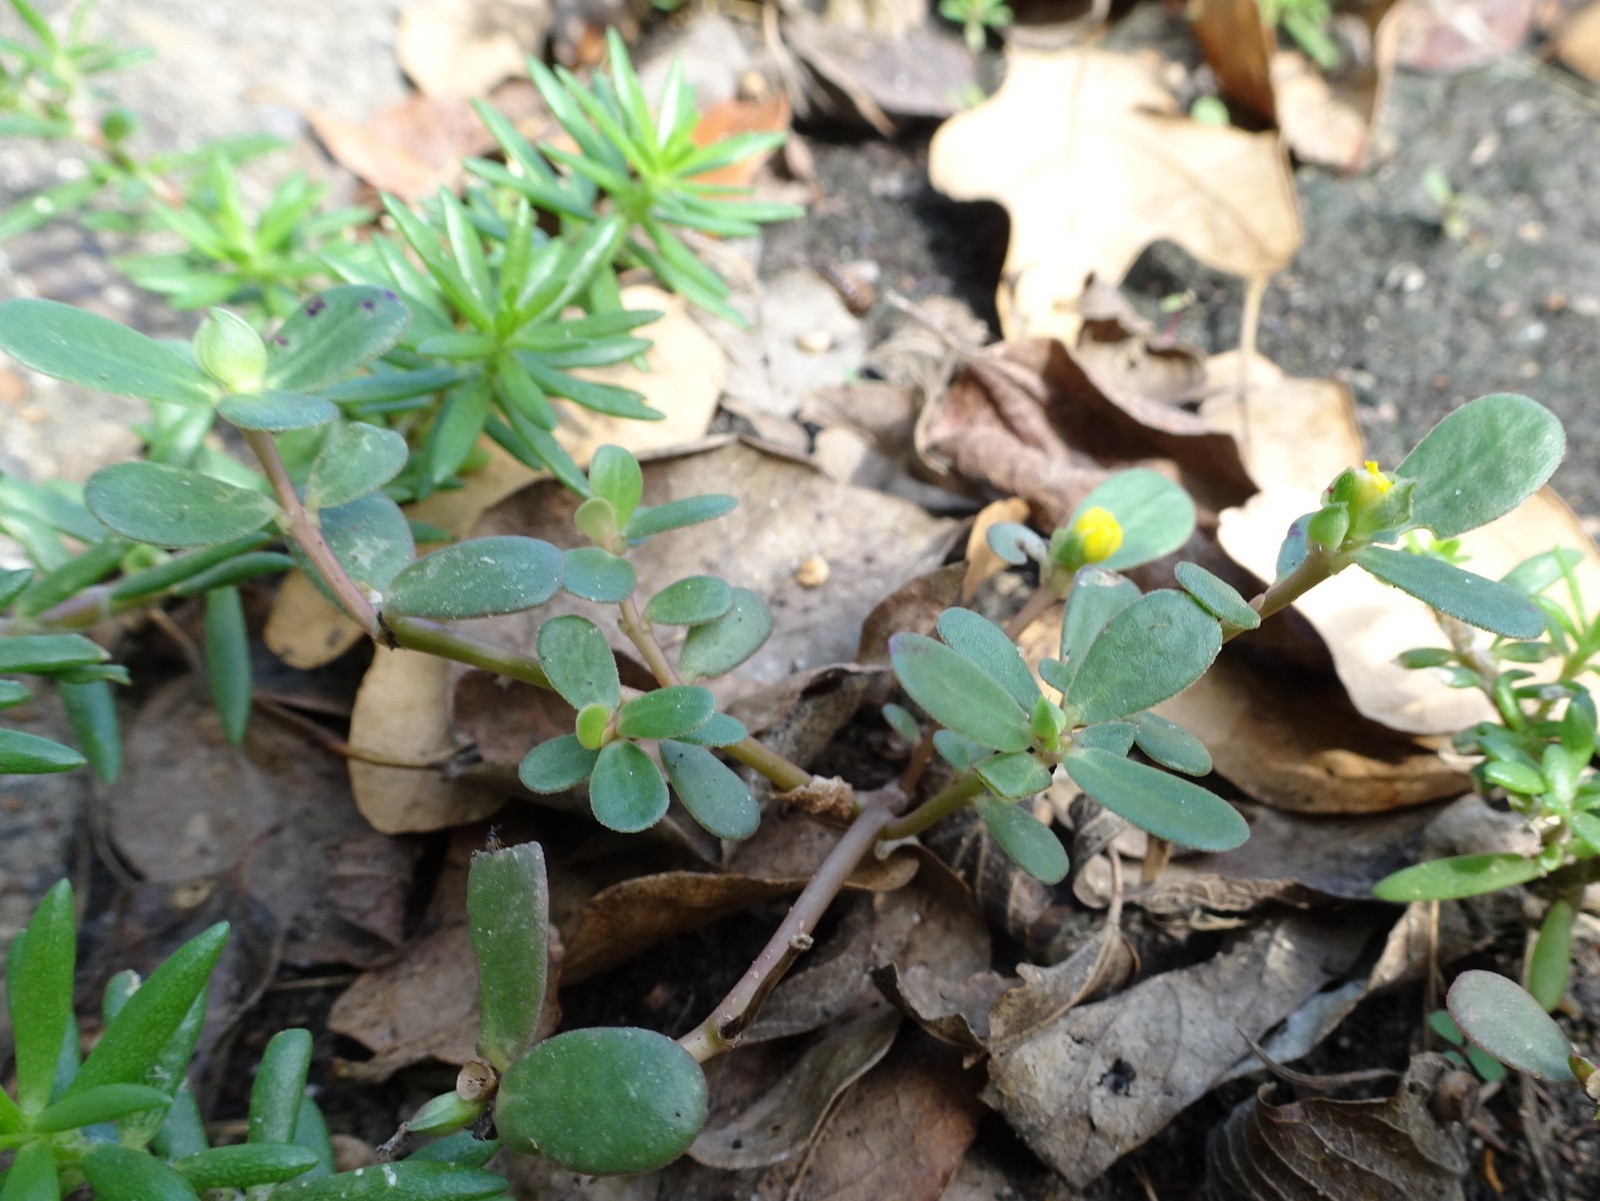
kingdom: Plantae
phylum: Tracheophyta
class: Magnoliopsida
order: Caryophyllales
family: Portulacaceae
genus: Portulaca
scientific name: Portulaca oleracea
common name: Common purslane
